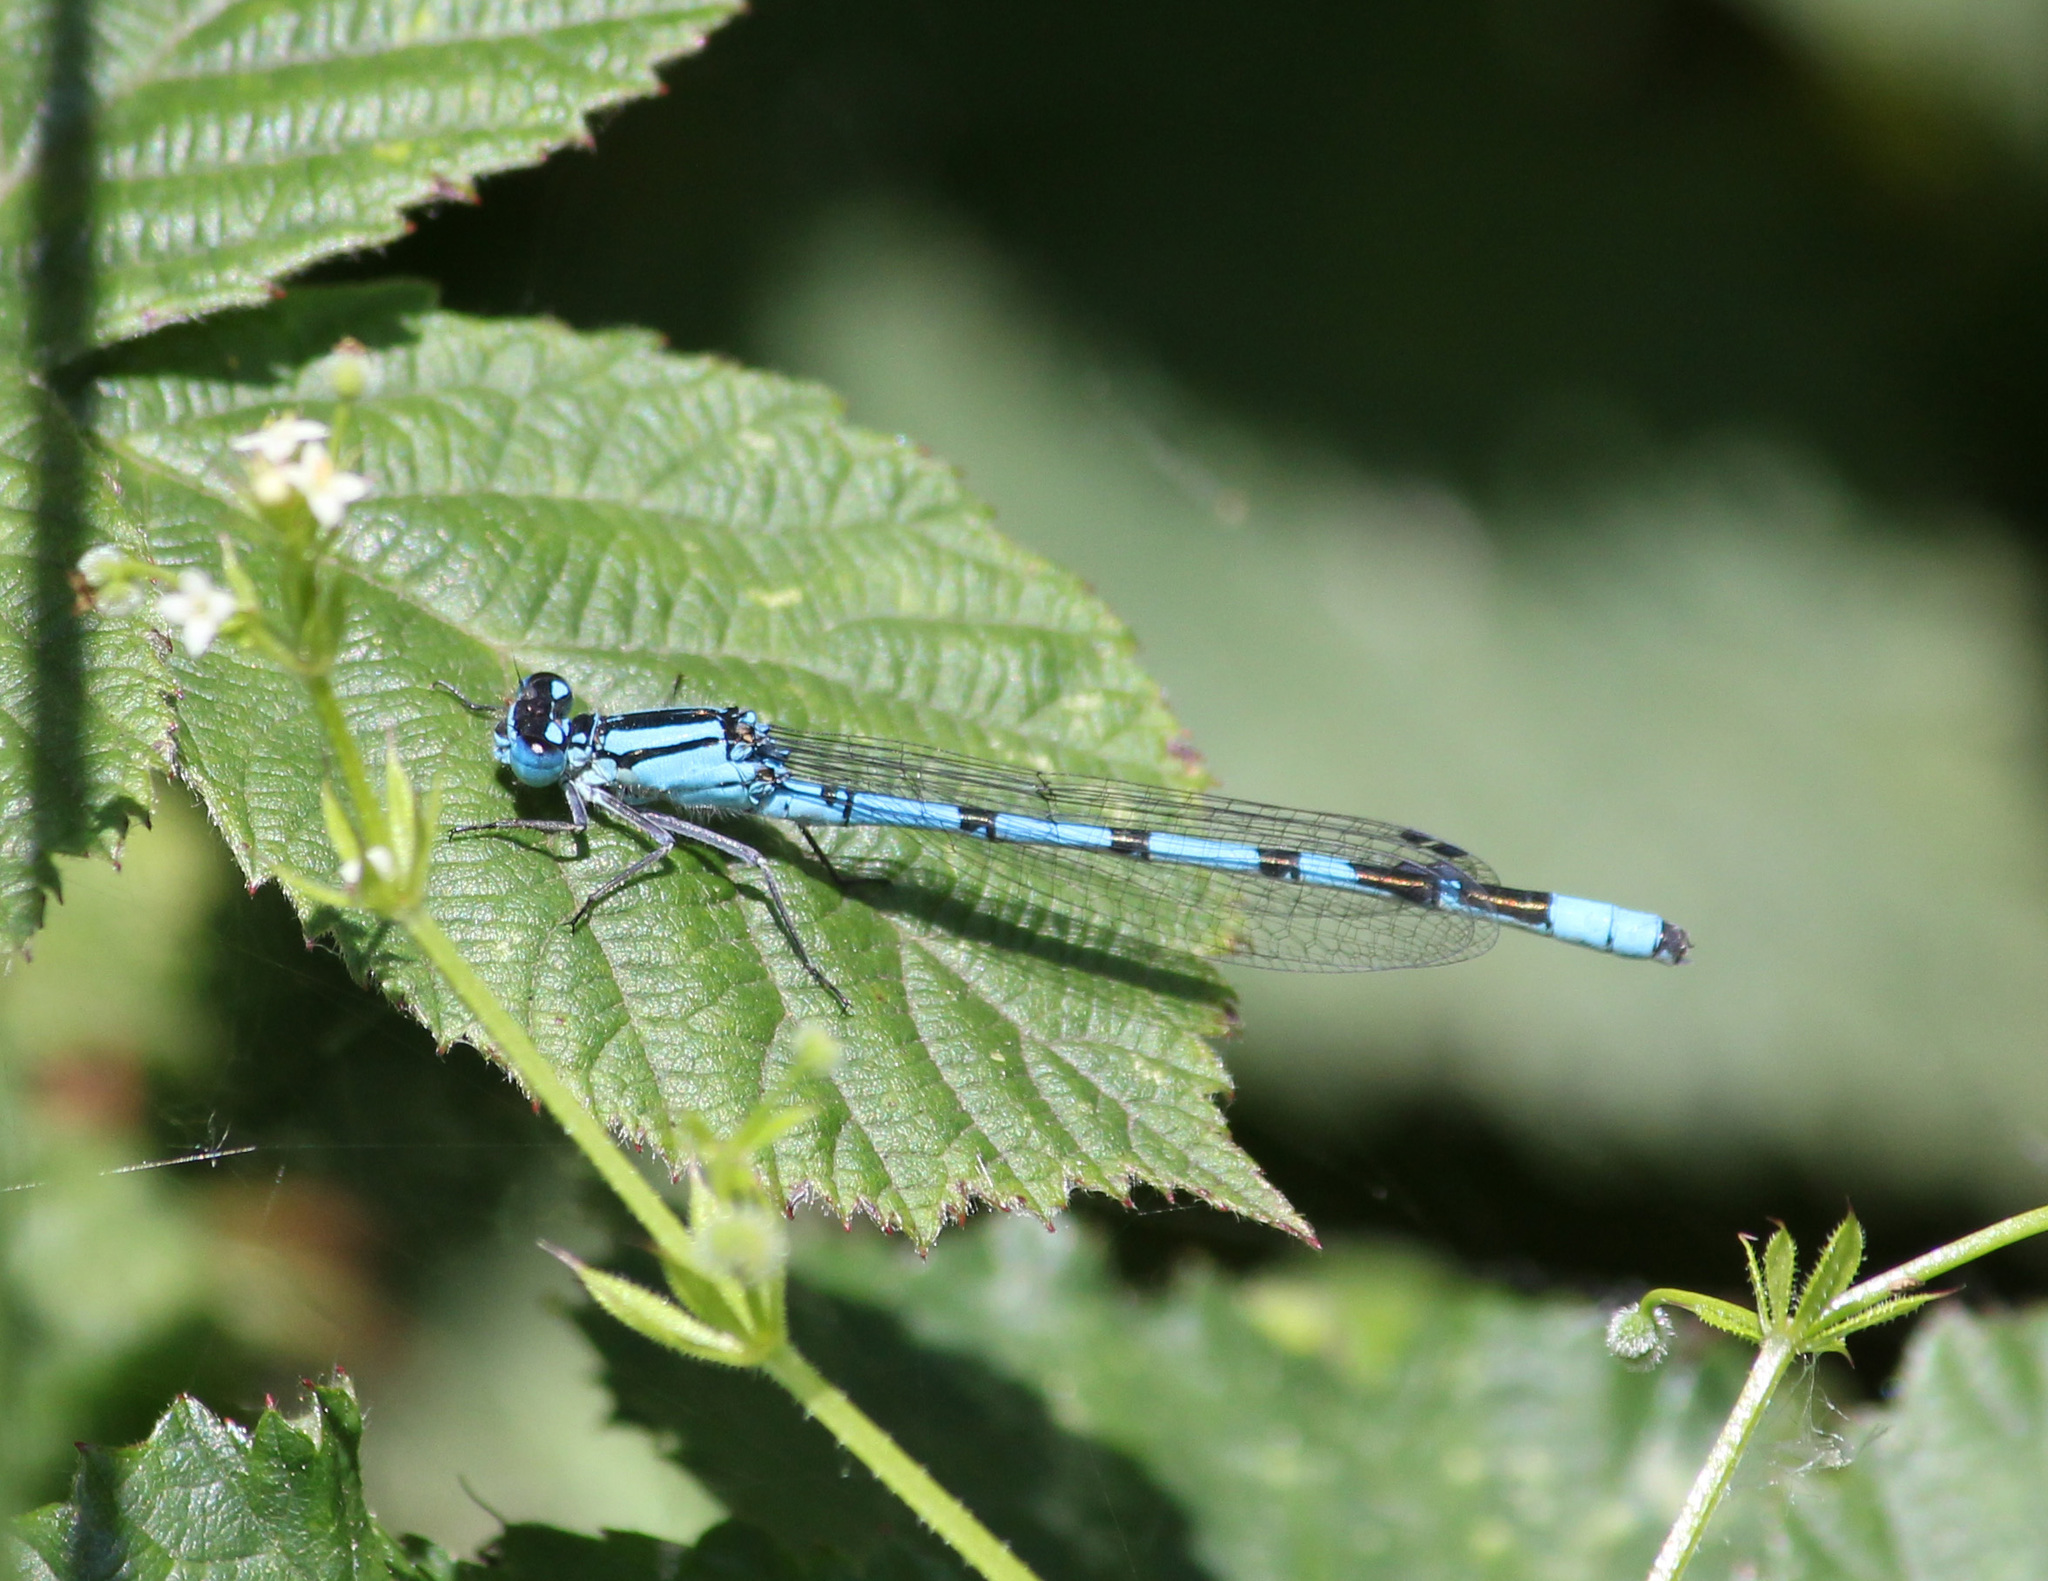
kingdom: Animalia
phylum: Arthropoda
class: Insecta
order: Odonata
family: Coenagrionidae
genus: Enallagma
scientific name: Enallagma cyathigerum
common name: Common blue damselfly
